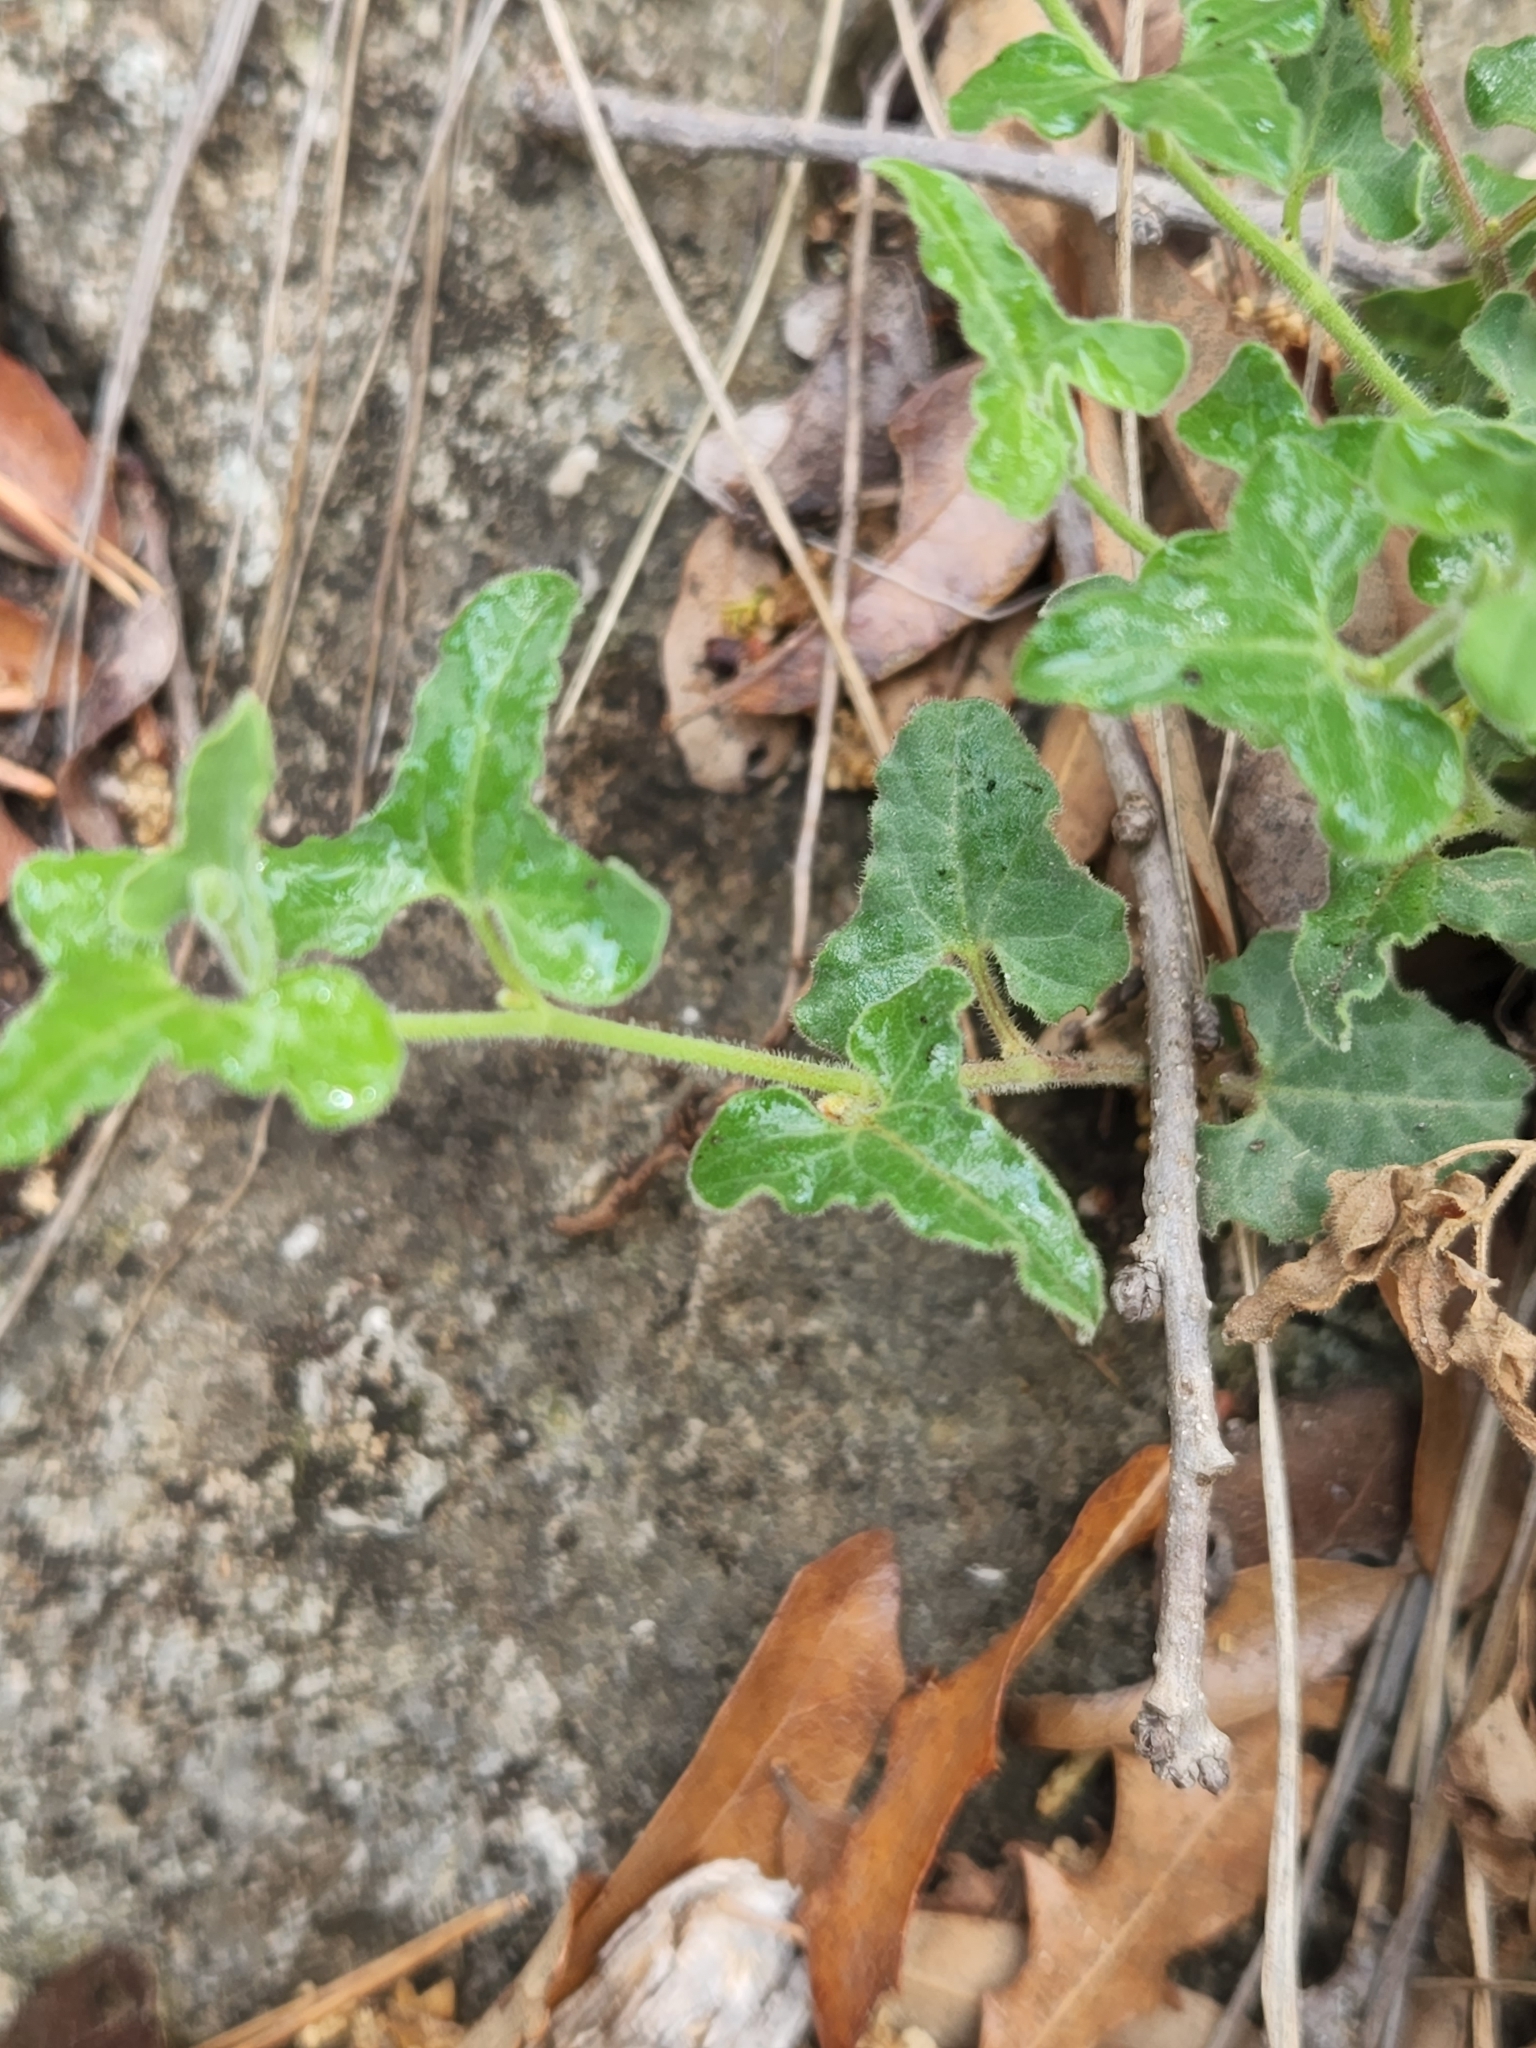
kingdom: Plantae
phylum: Tracheophyta
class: Magnoliopsida
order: Piperales
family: Aristolochiaceae
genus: Aristolochia
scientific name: Aristolochia coryi
